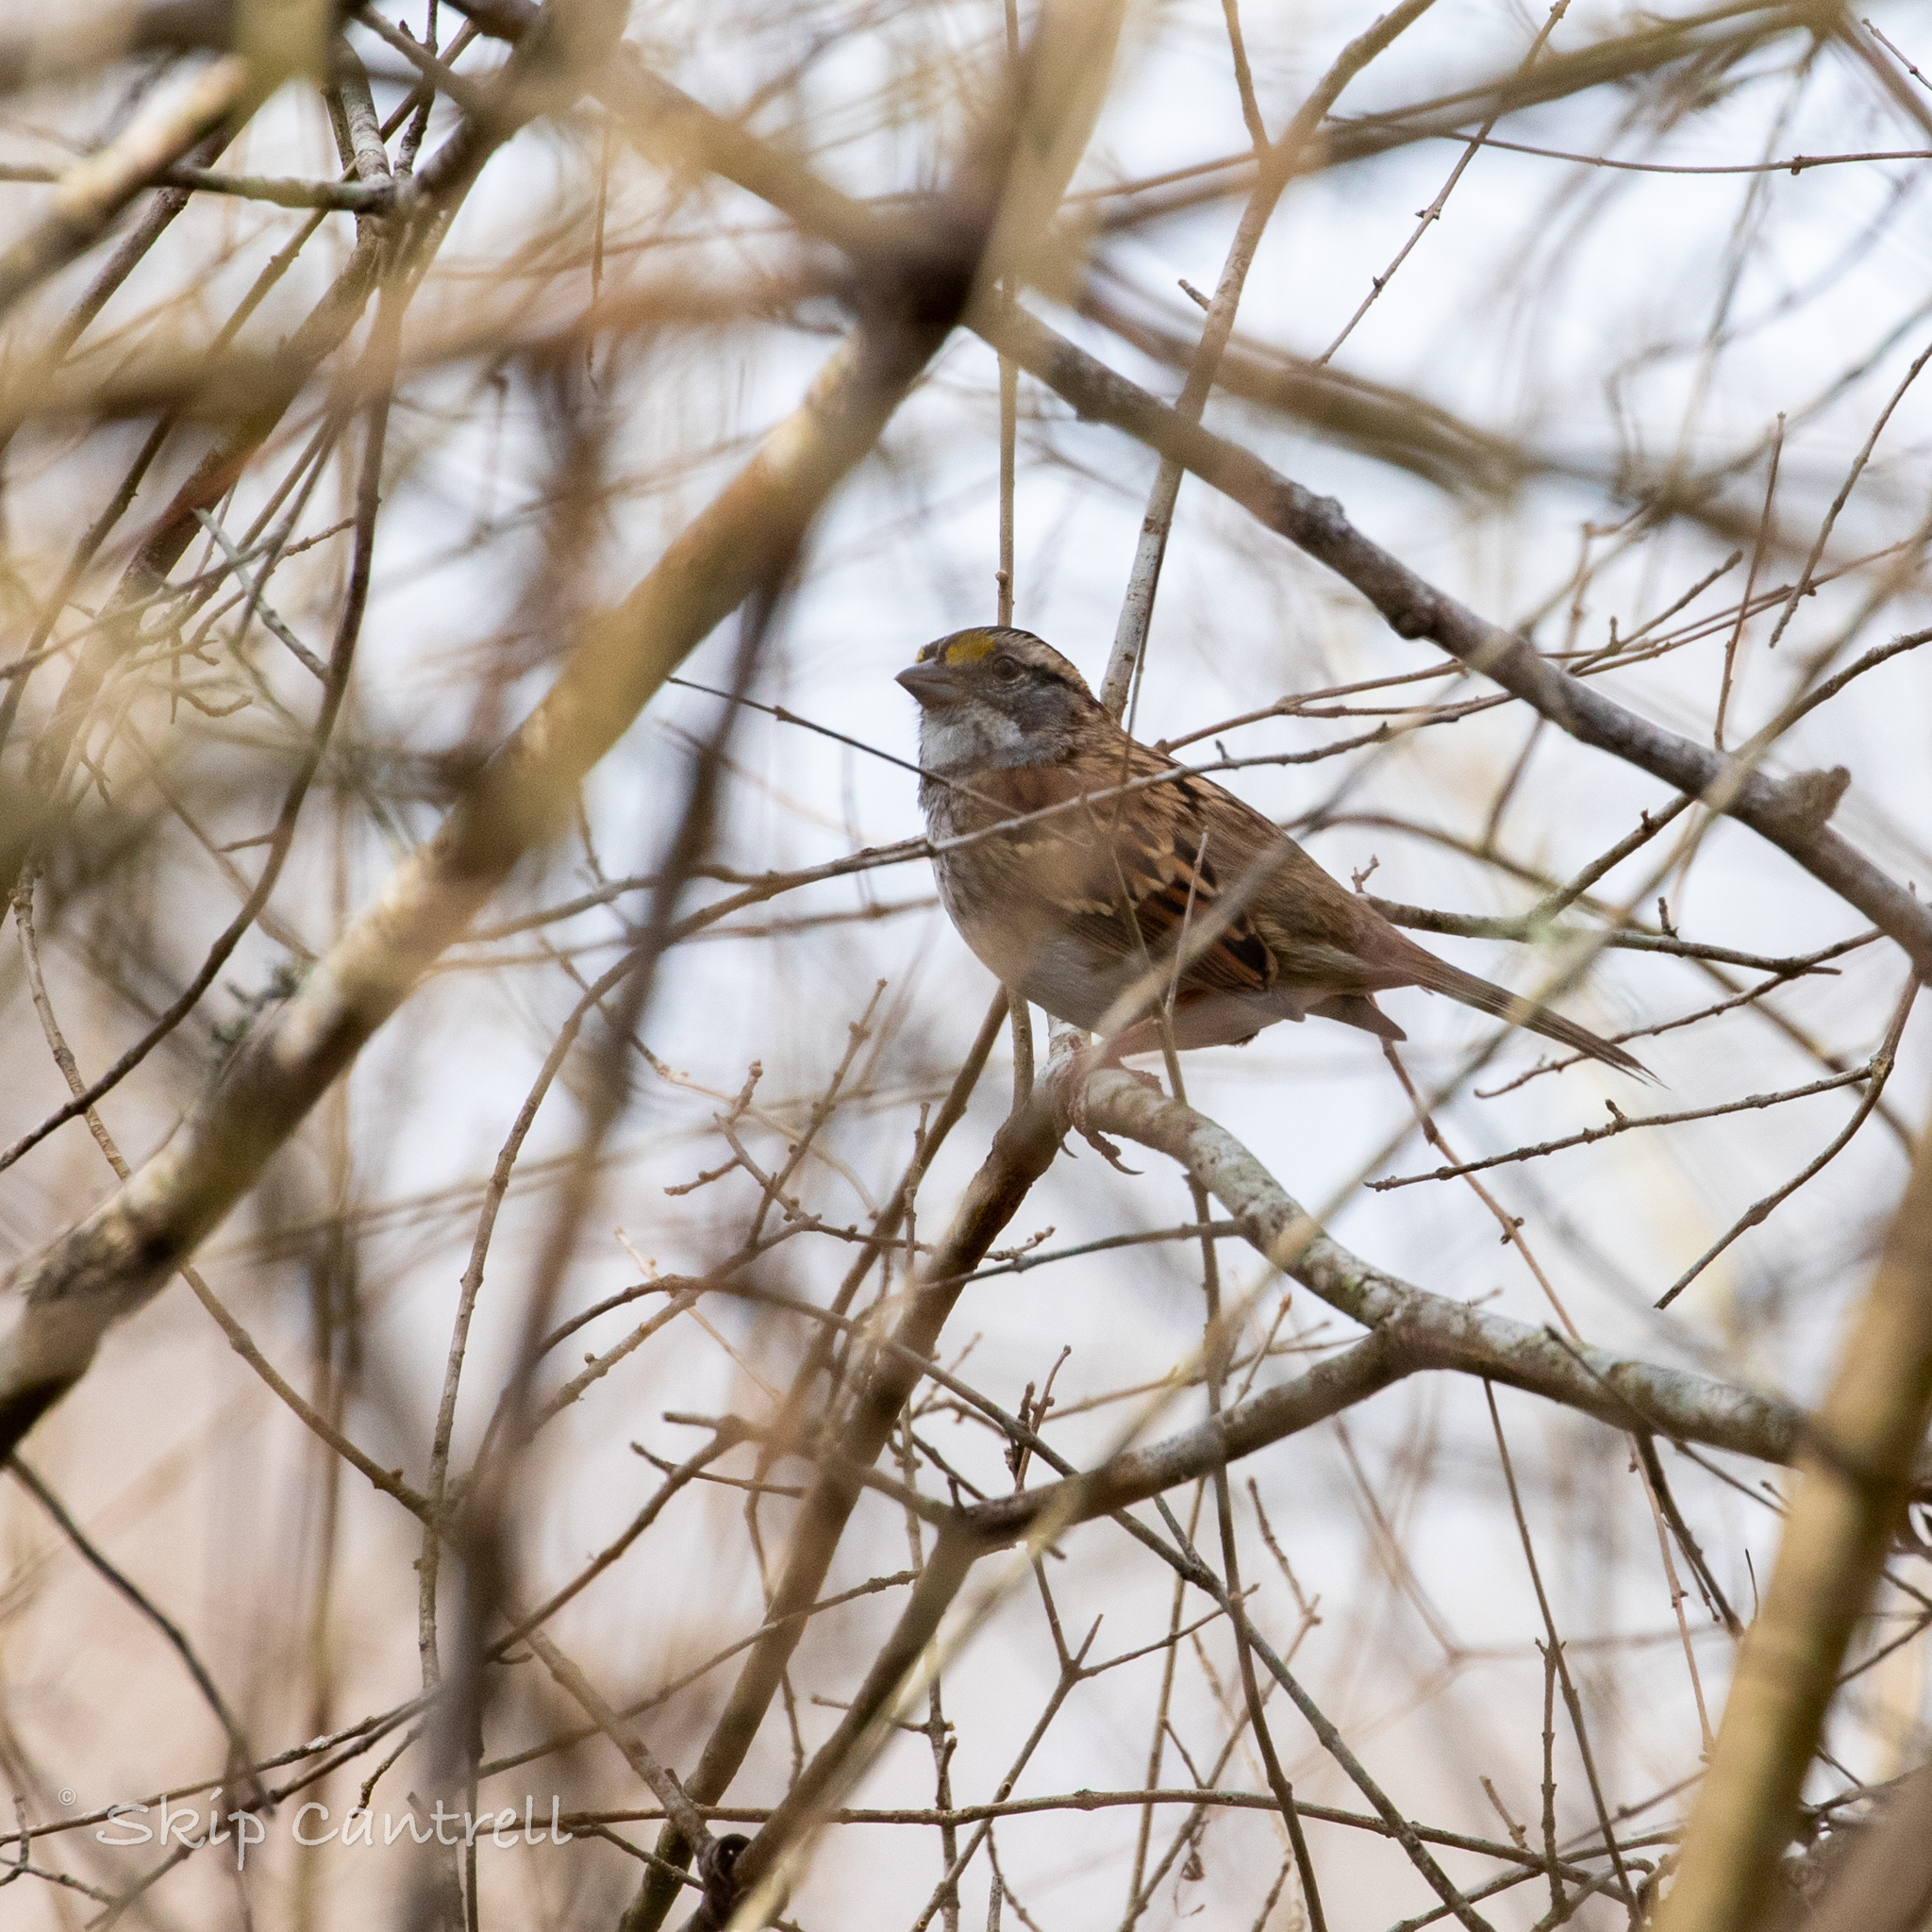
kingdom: Animalia
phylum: Chordata
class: Aves
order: Passeriformes
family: Passerellidae
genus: Zonotrichia
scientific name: Zonotrichia albicollis
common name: White-throated sparrow
